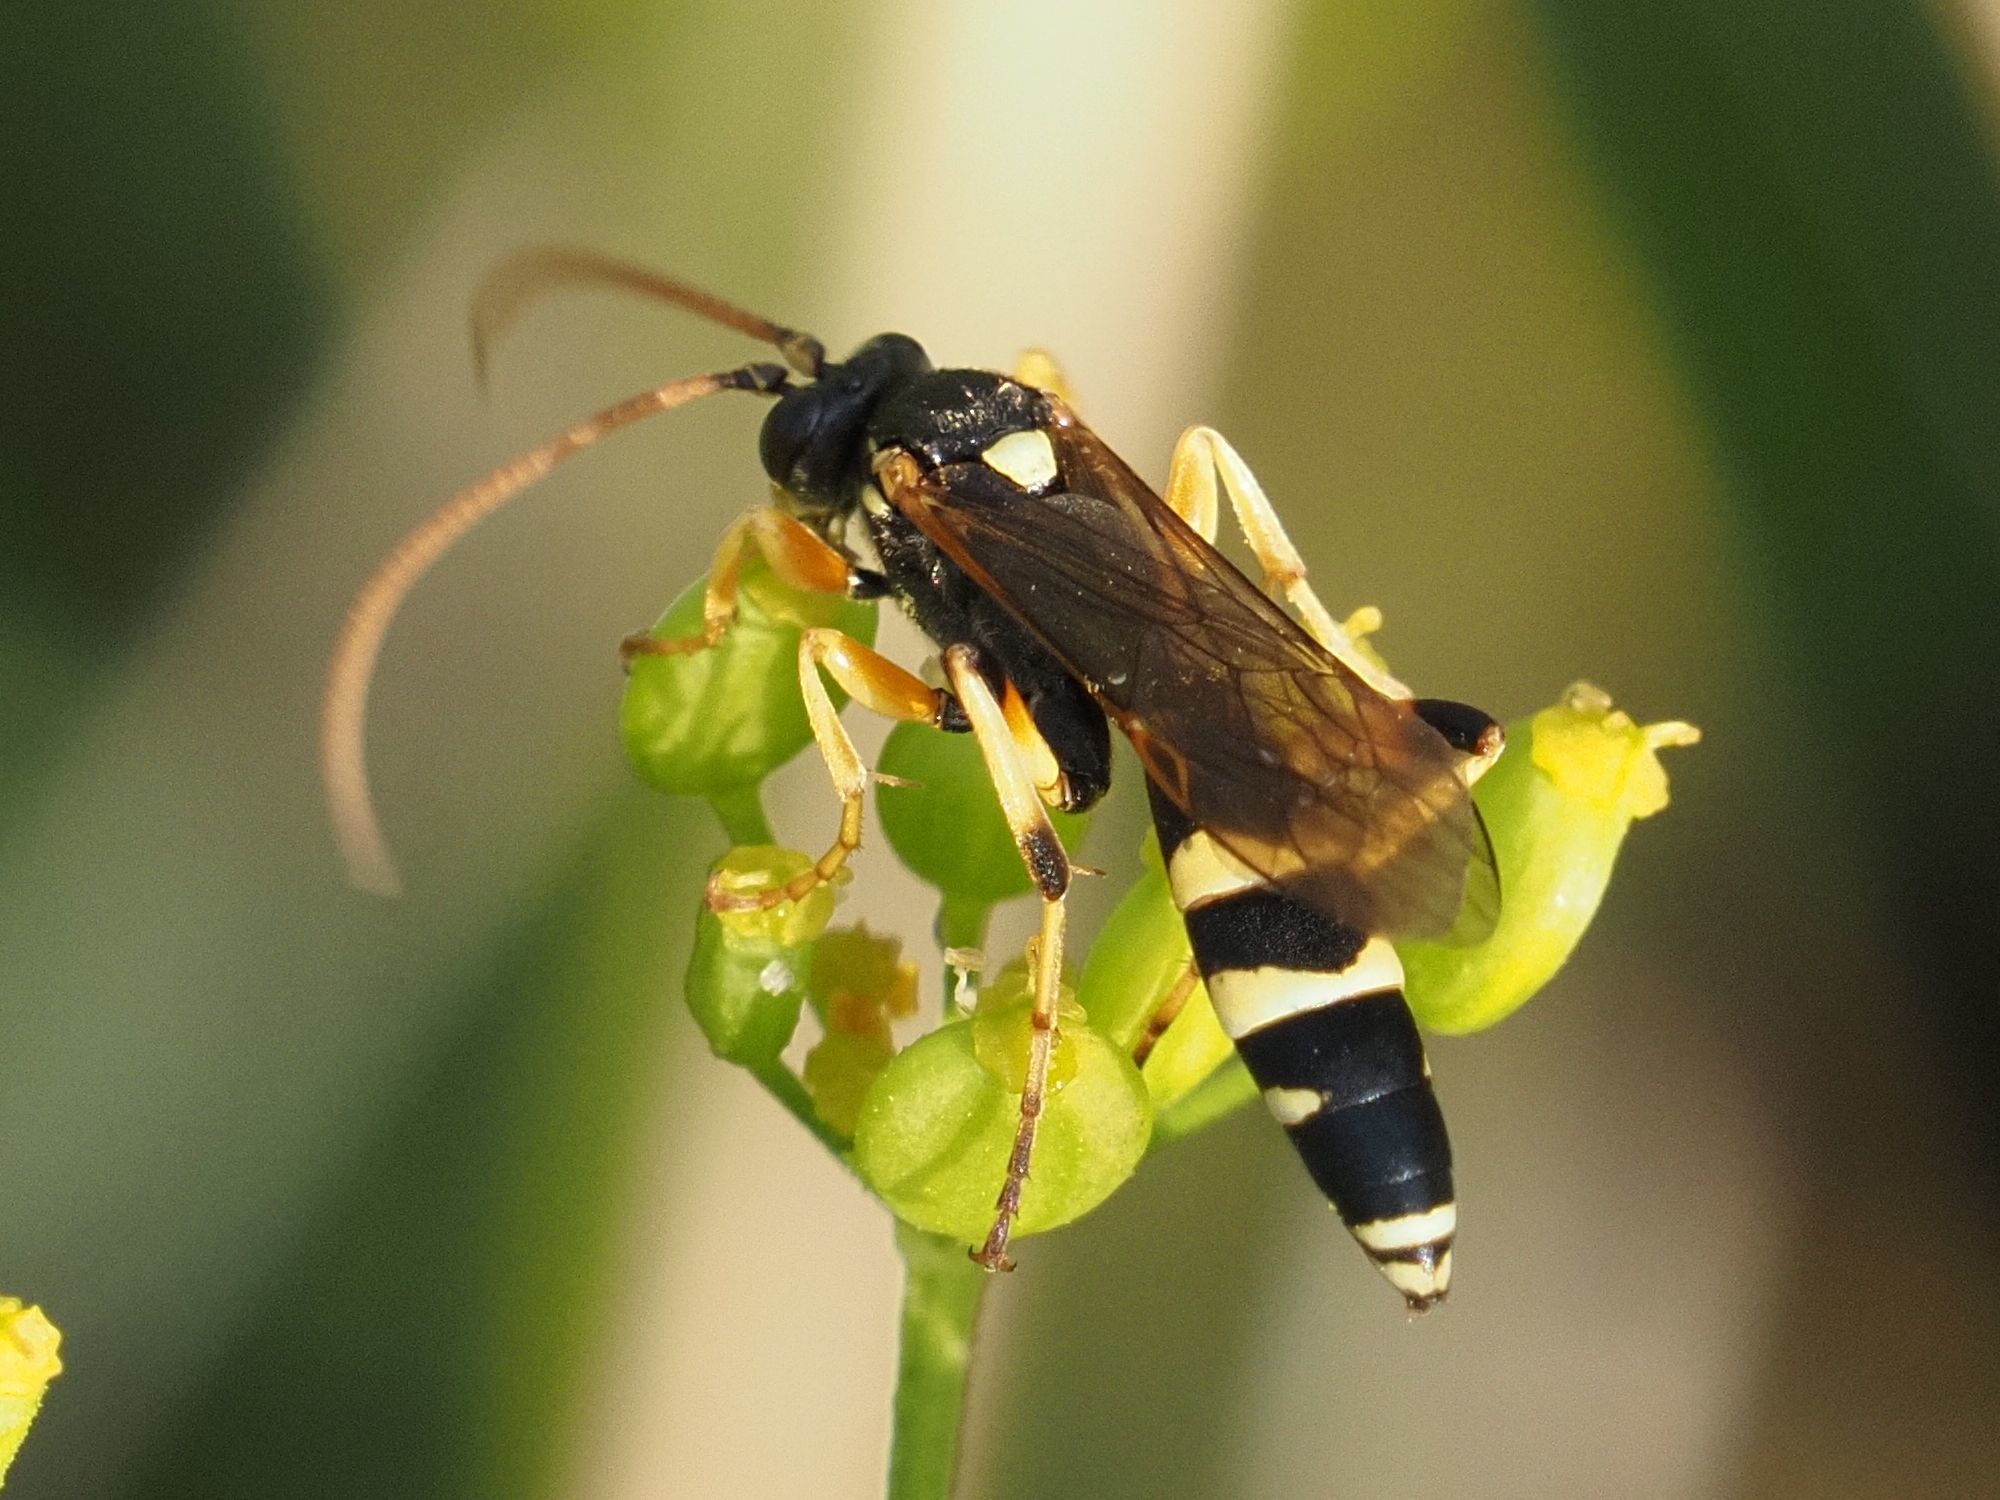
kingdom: Animalia
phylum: Arthropoda
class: Insecta
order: Hymenoptera
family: Ichneumonidae
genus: Ichneumon
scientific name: Ichneumon sarcitorius
